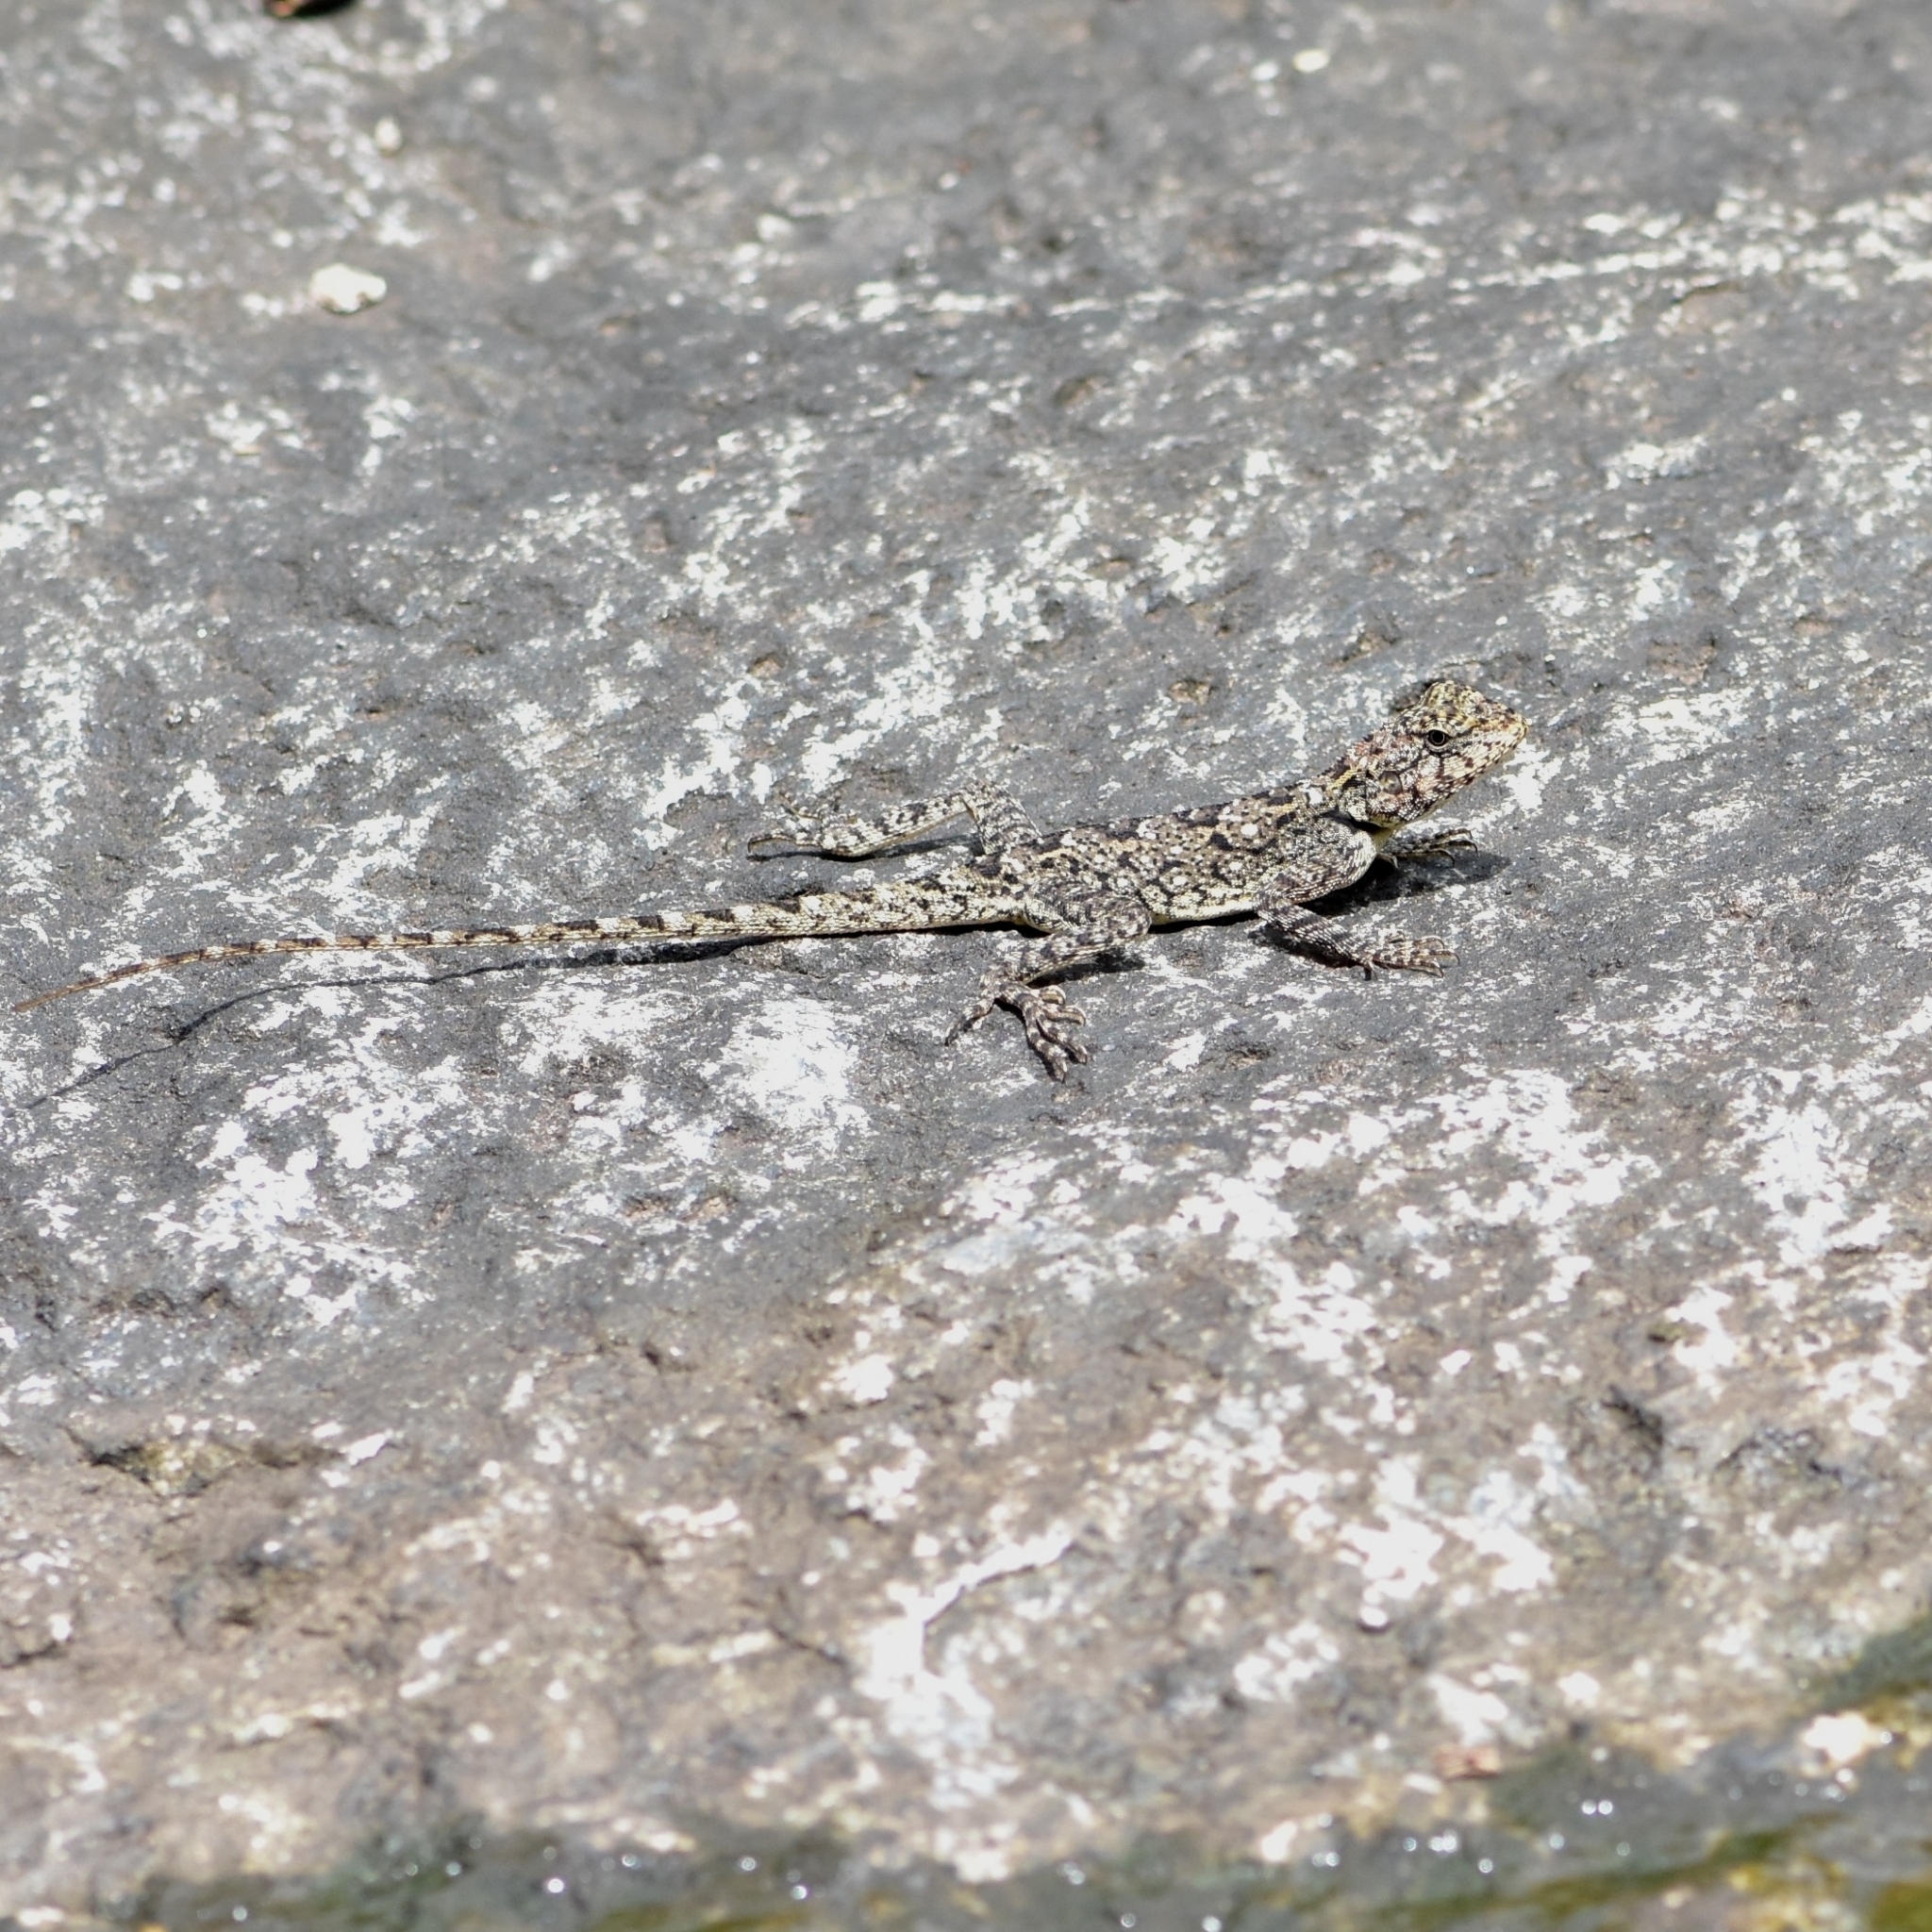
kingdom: Animalia
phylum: Chordata
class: Squamata
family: Agamidae
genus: Psammophilus
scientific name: Psammophilus dorsalis
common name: South indian rock agama
